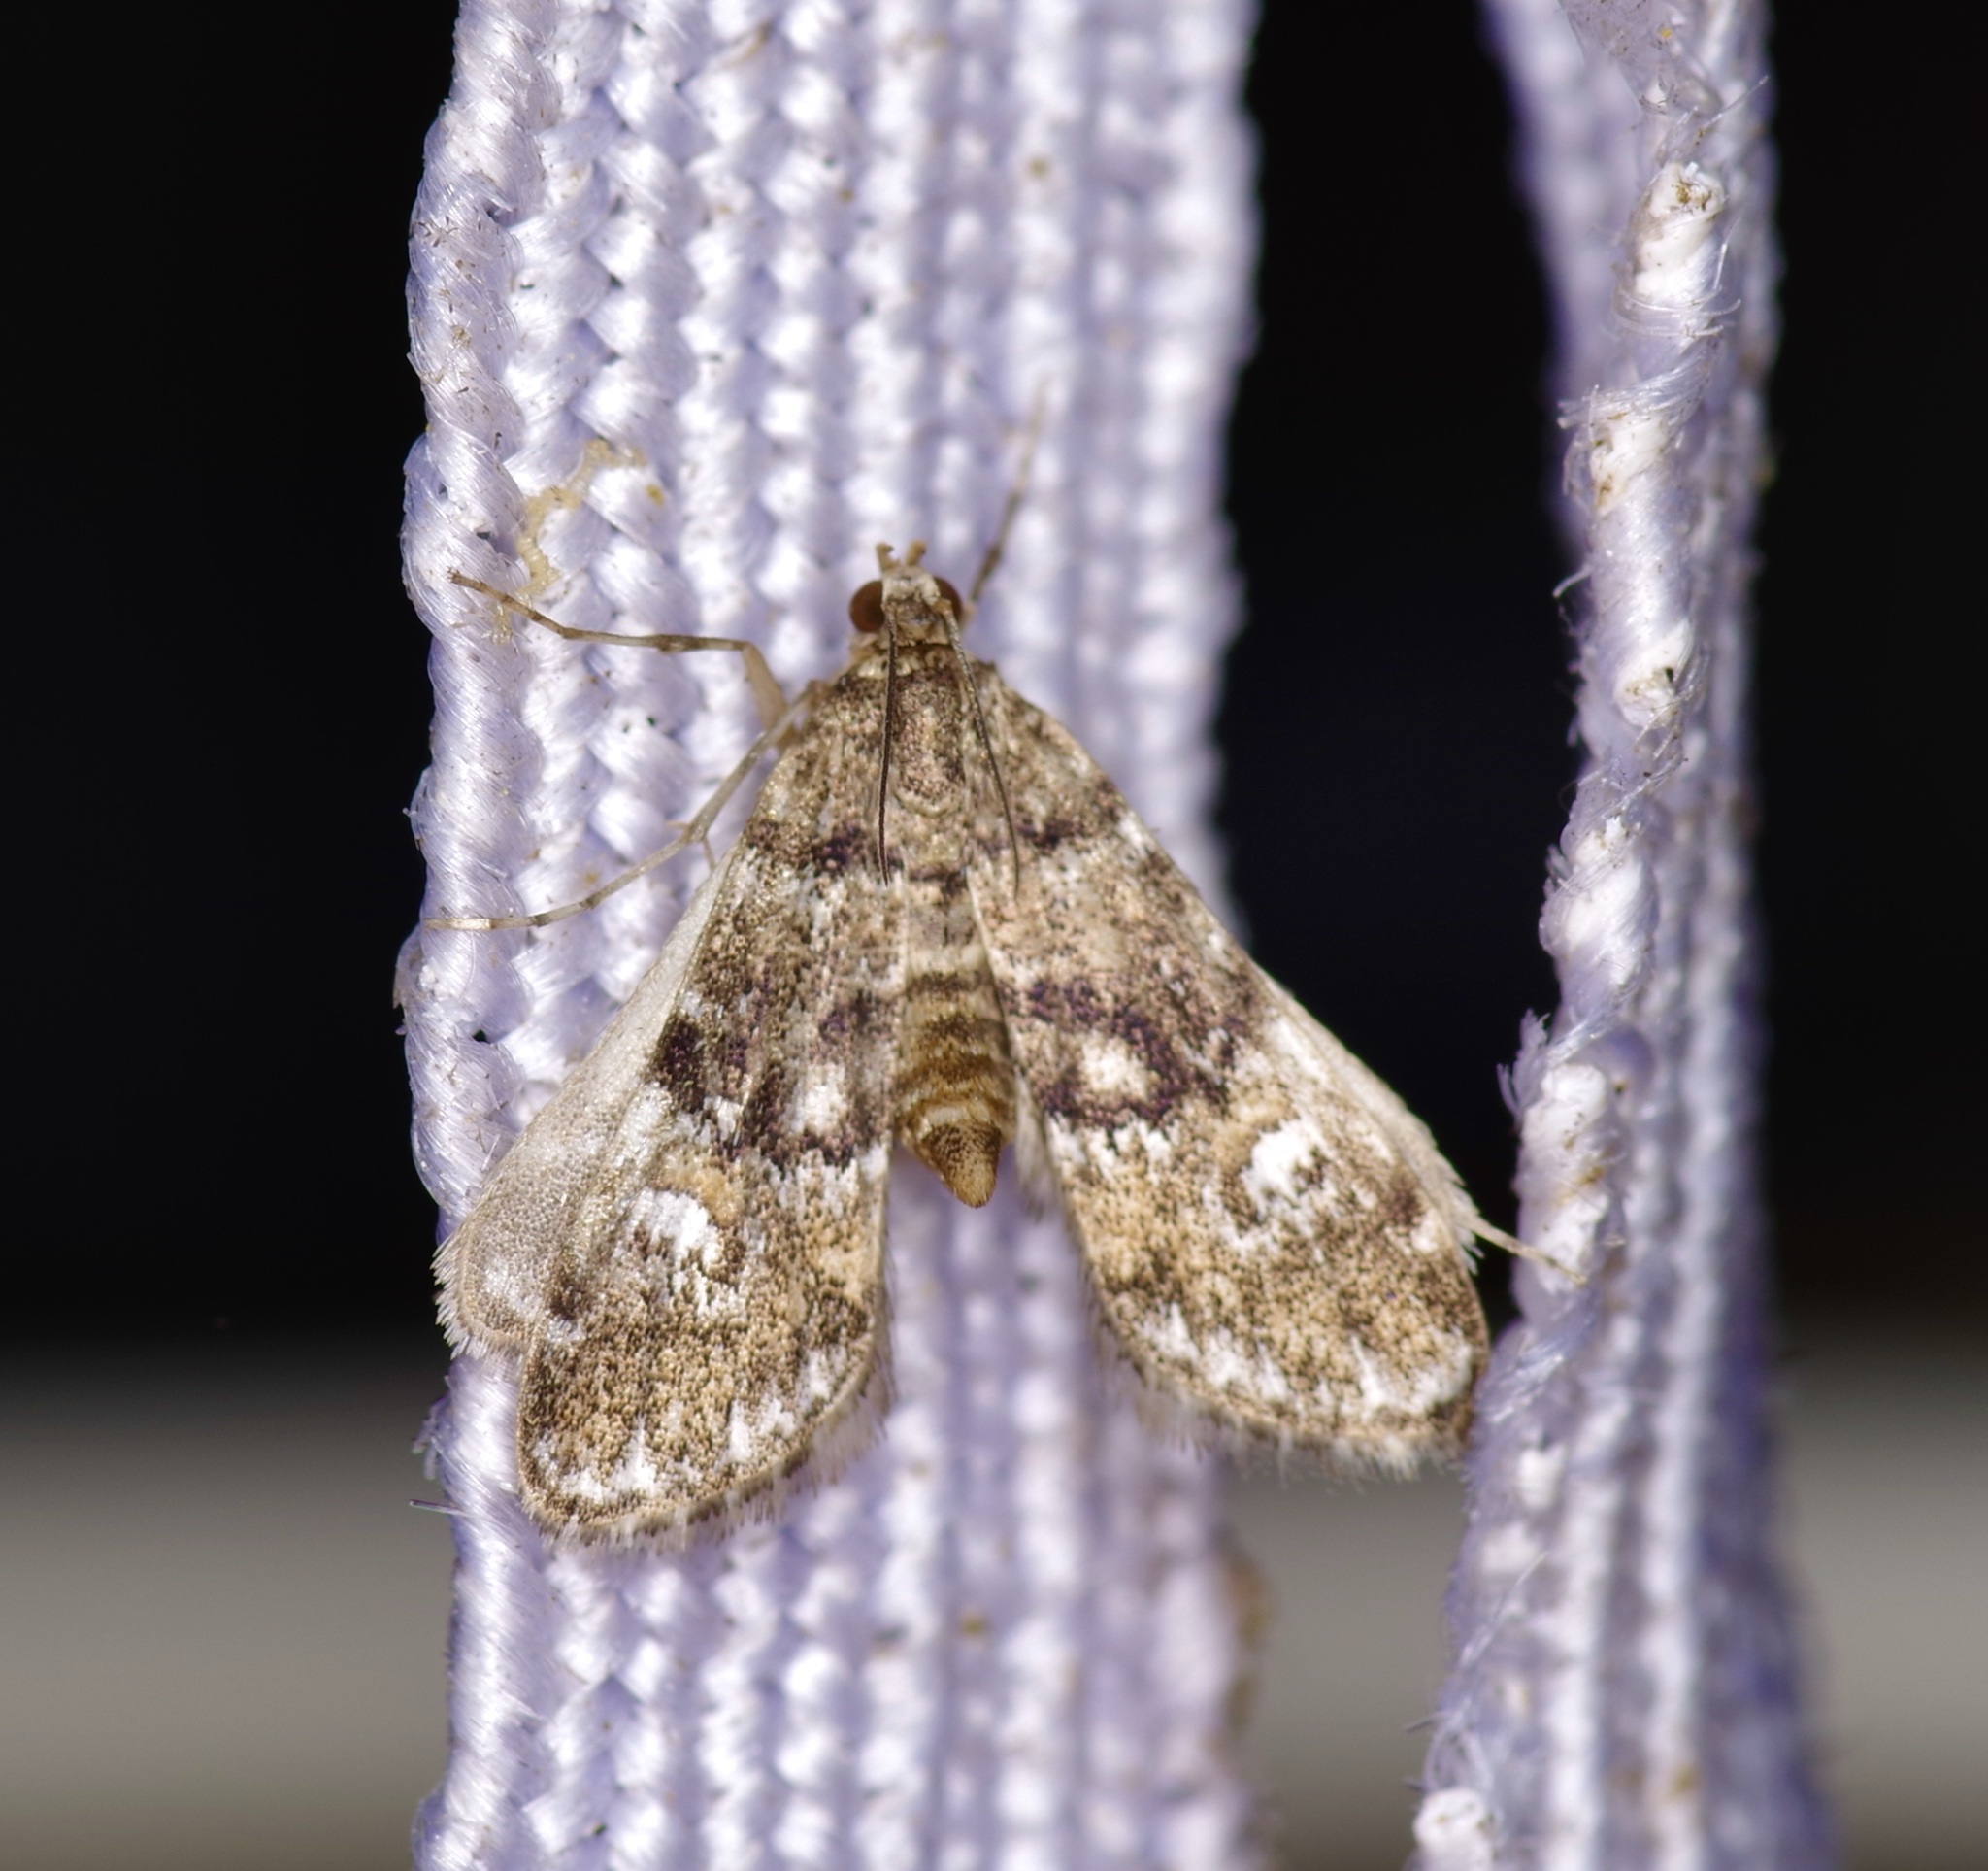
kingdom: Animalia
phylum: Arthropoda
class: Insecta
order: Lepidoptera
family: Crambidae
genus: Elophila
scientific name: Elophila obliteralis
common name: Waterlily leafcutter moth
